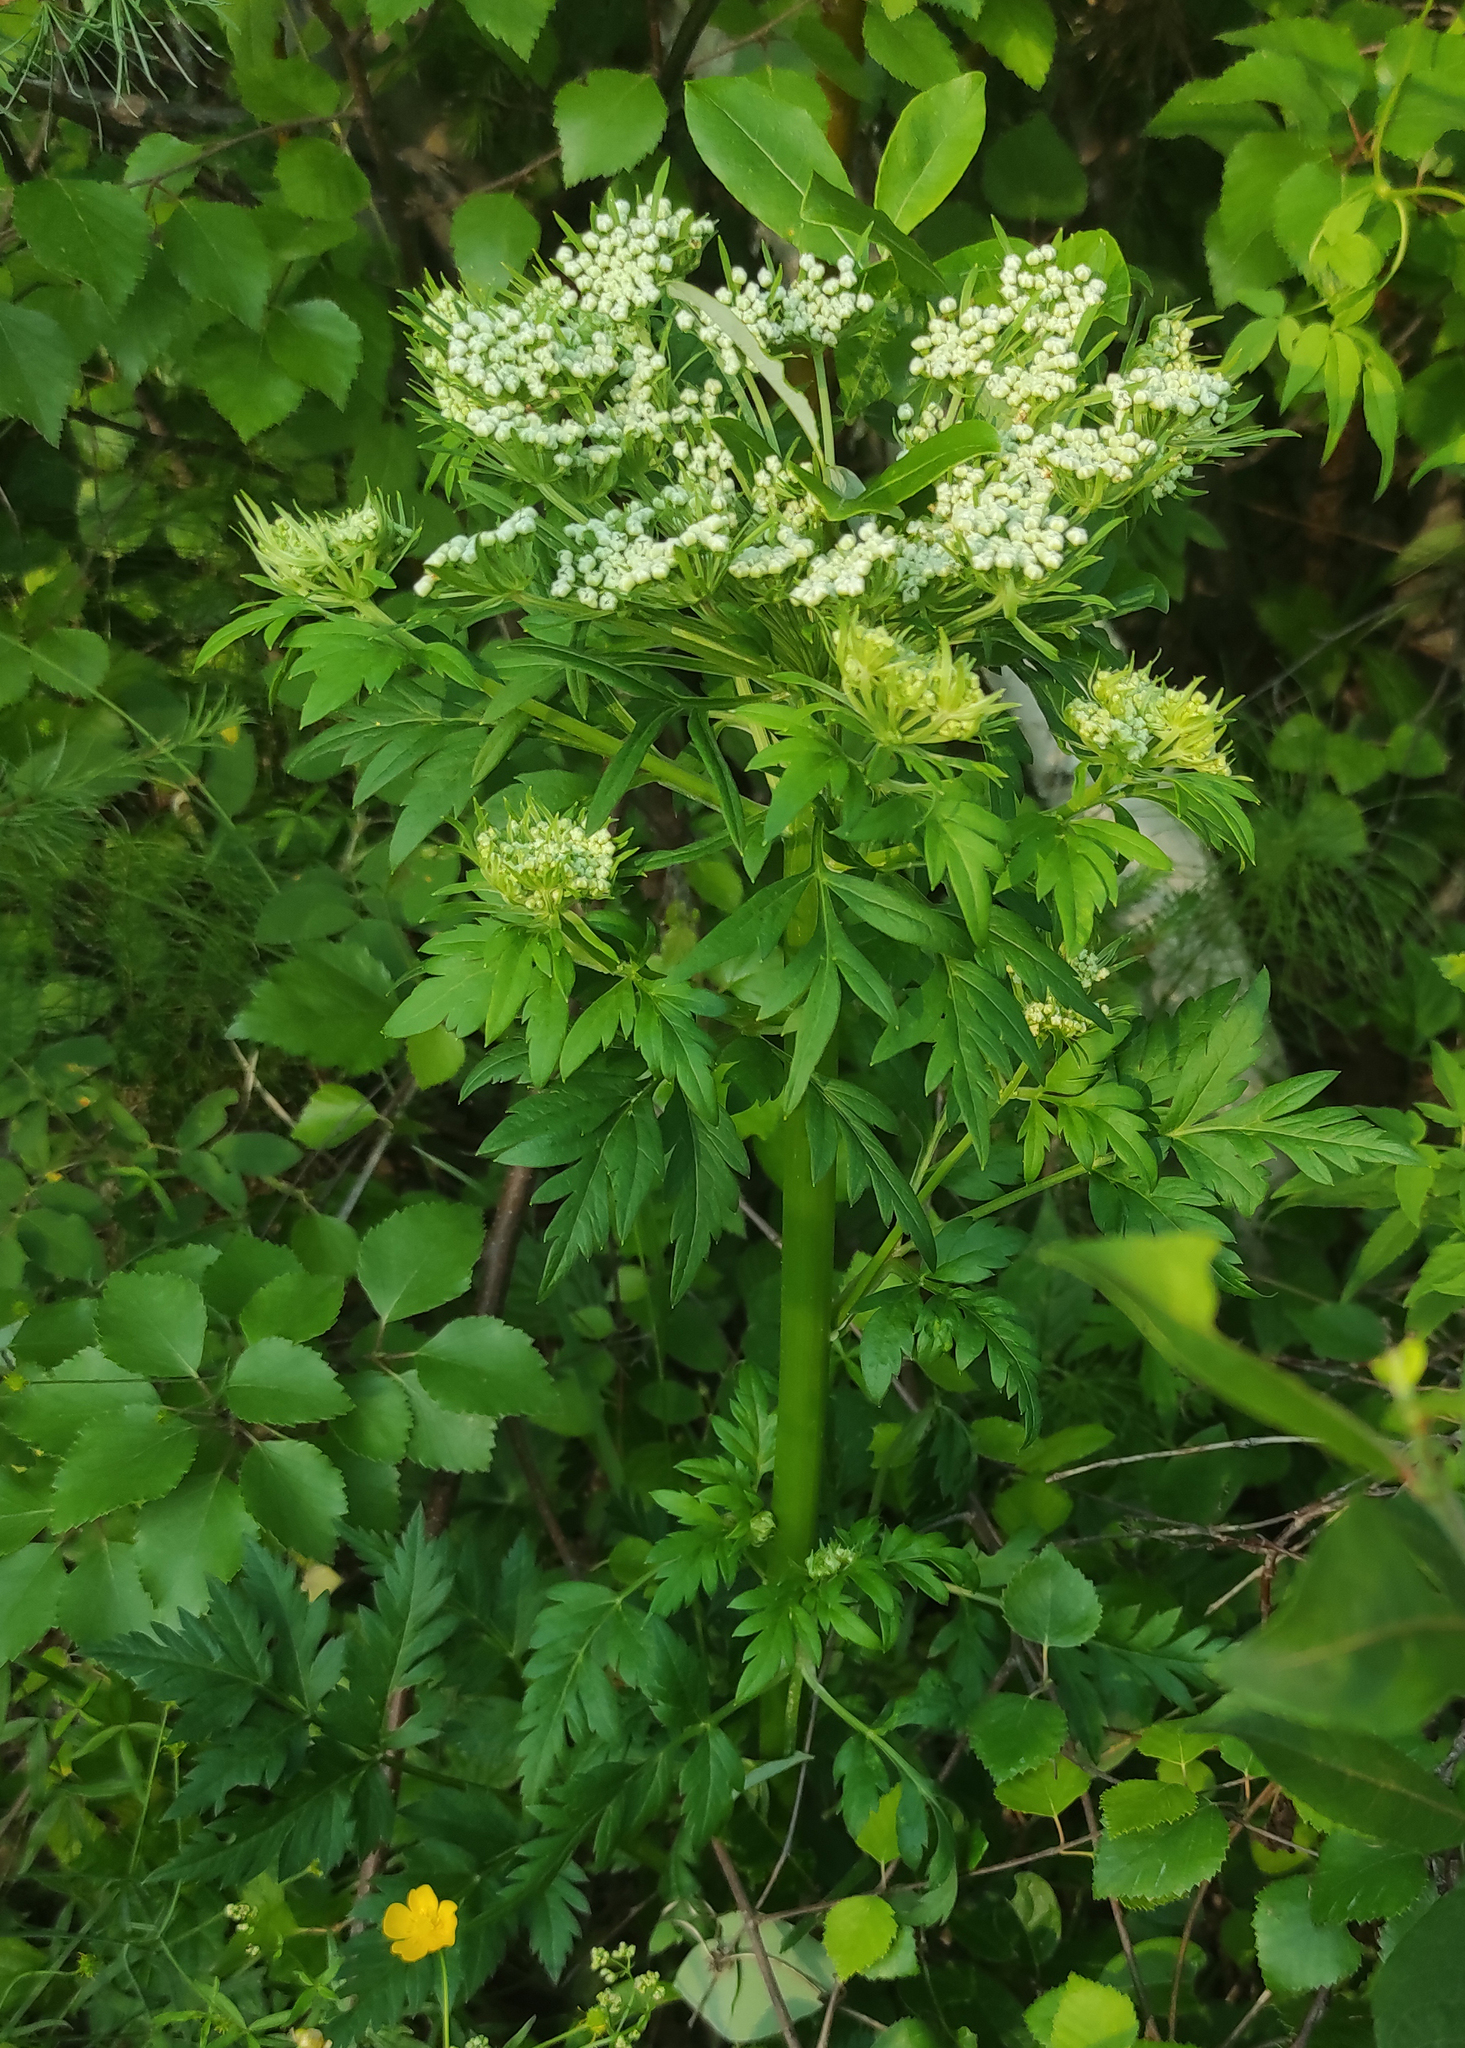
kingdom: Plantae
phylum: Tracheophyta
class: Magnoliopsida
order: Apiales
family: Apiaceae
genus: Pleurospermum
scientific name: Pleurospermum uralense
